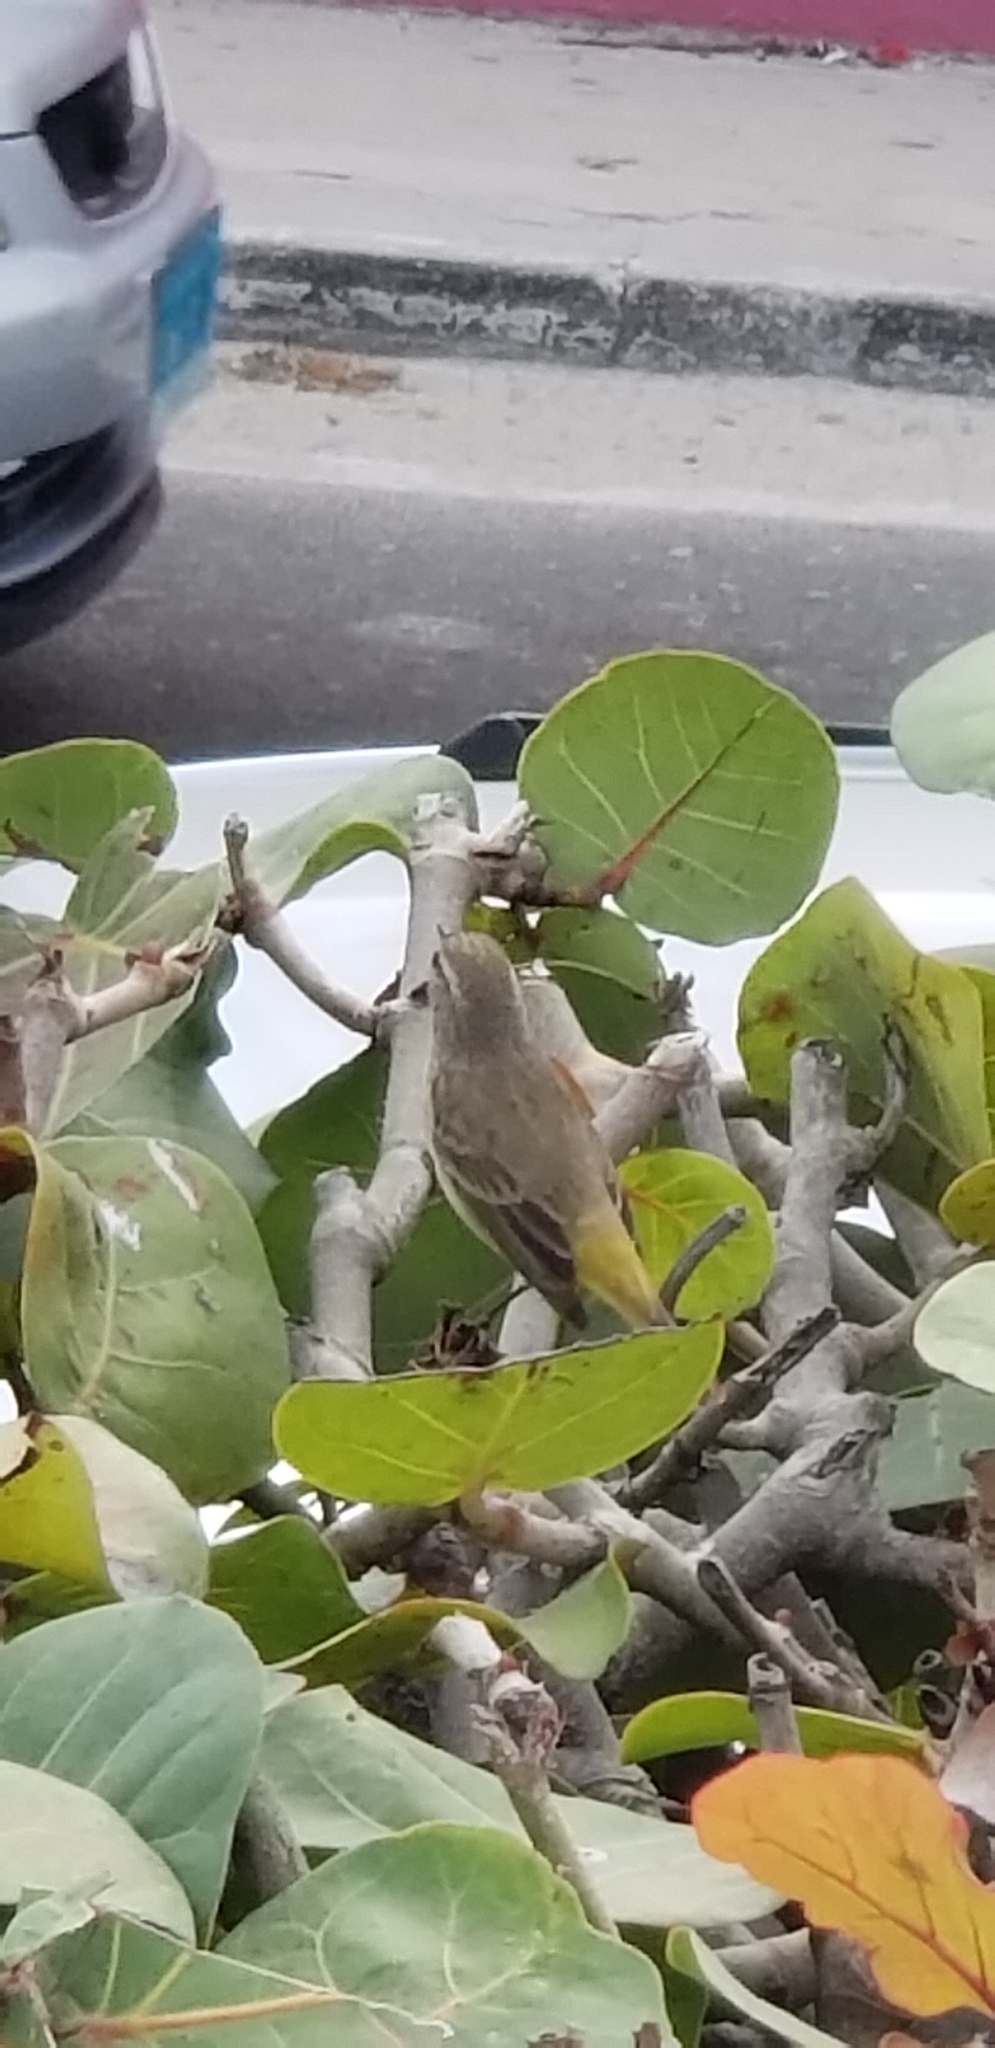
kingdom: Animalia
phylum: Chordata
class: Aves
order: Passeriformes
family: Parulidae
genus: Setophaga
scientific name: Setophaga palmarum
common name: Palm warbler
